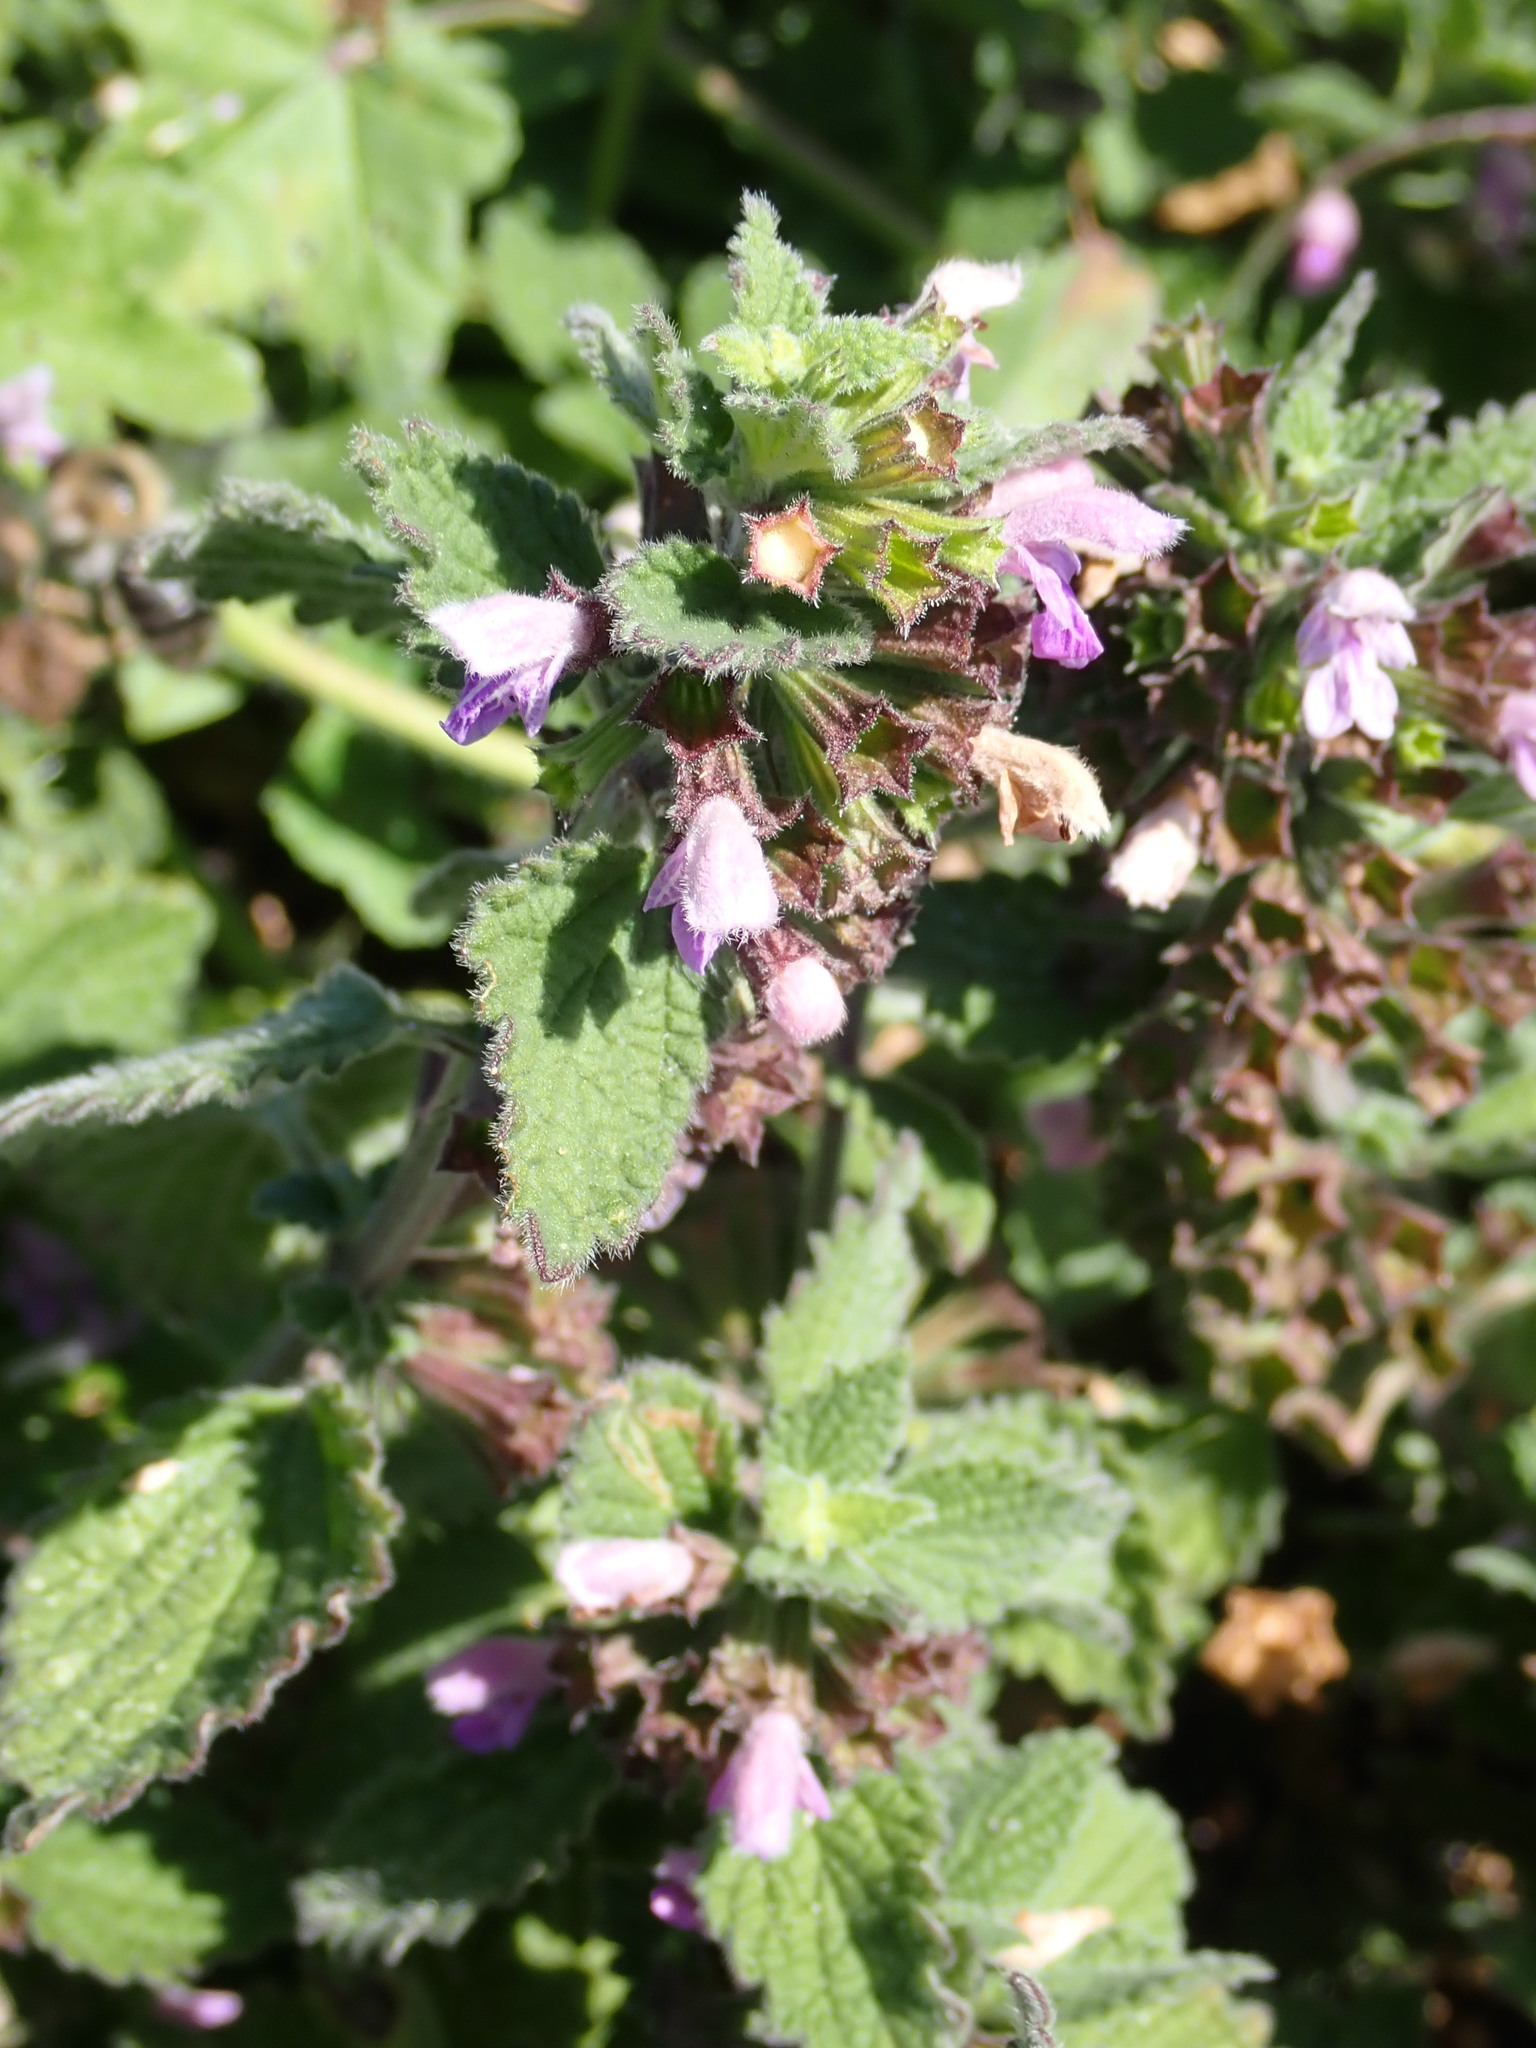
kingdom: Plantae
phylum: Tracheophyta
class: Magnoliopsida
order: Lamiales
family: Lamiaceae
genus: Ballota
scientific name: Ballota nigra
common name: Black horehound
